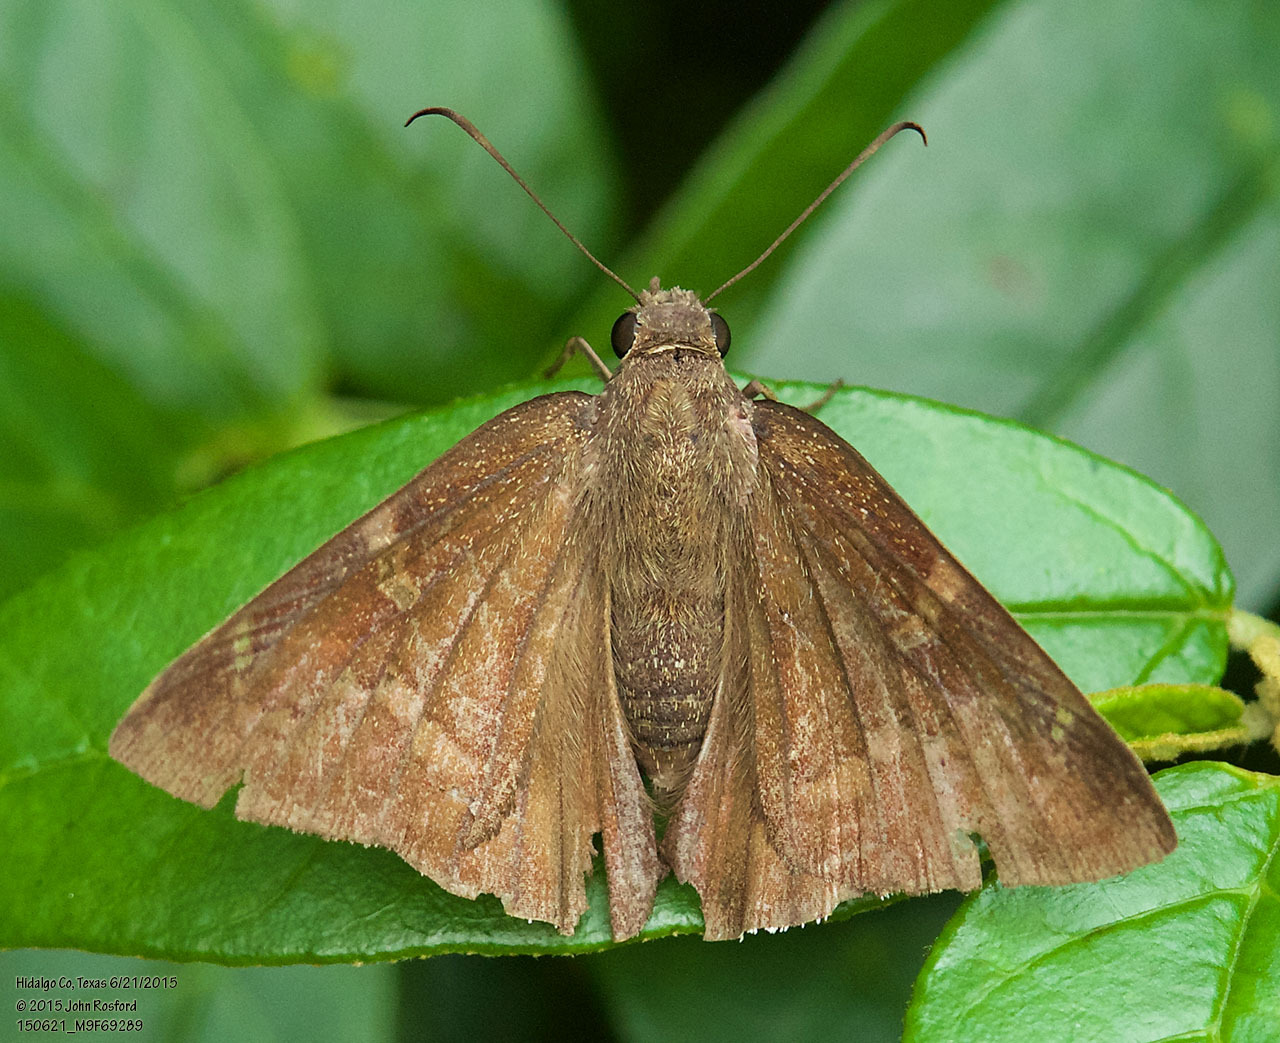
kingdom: Animalia
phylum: Arthropoda
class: Insecta
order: Lepidoptera
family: Hesperiidae
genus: Achalarus
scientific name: Achalarus Murgaria albociliatus
